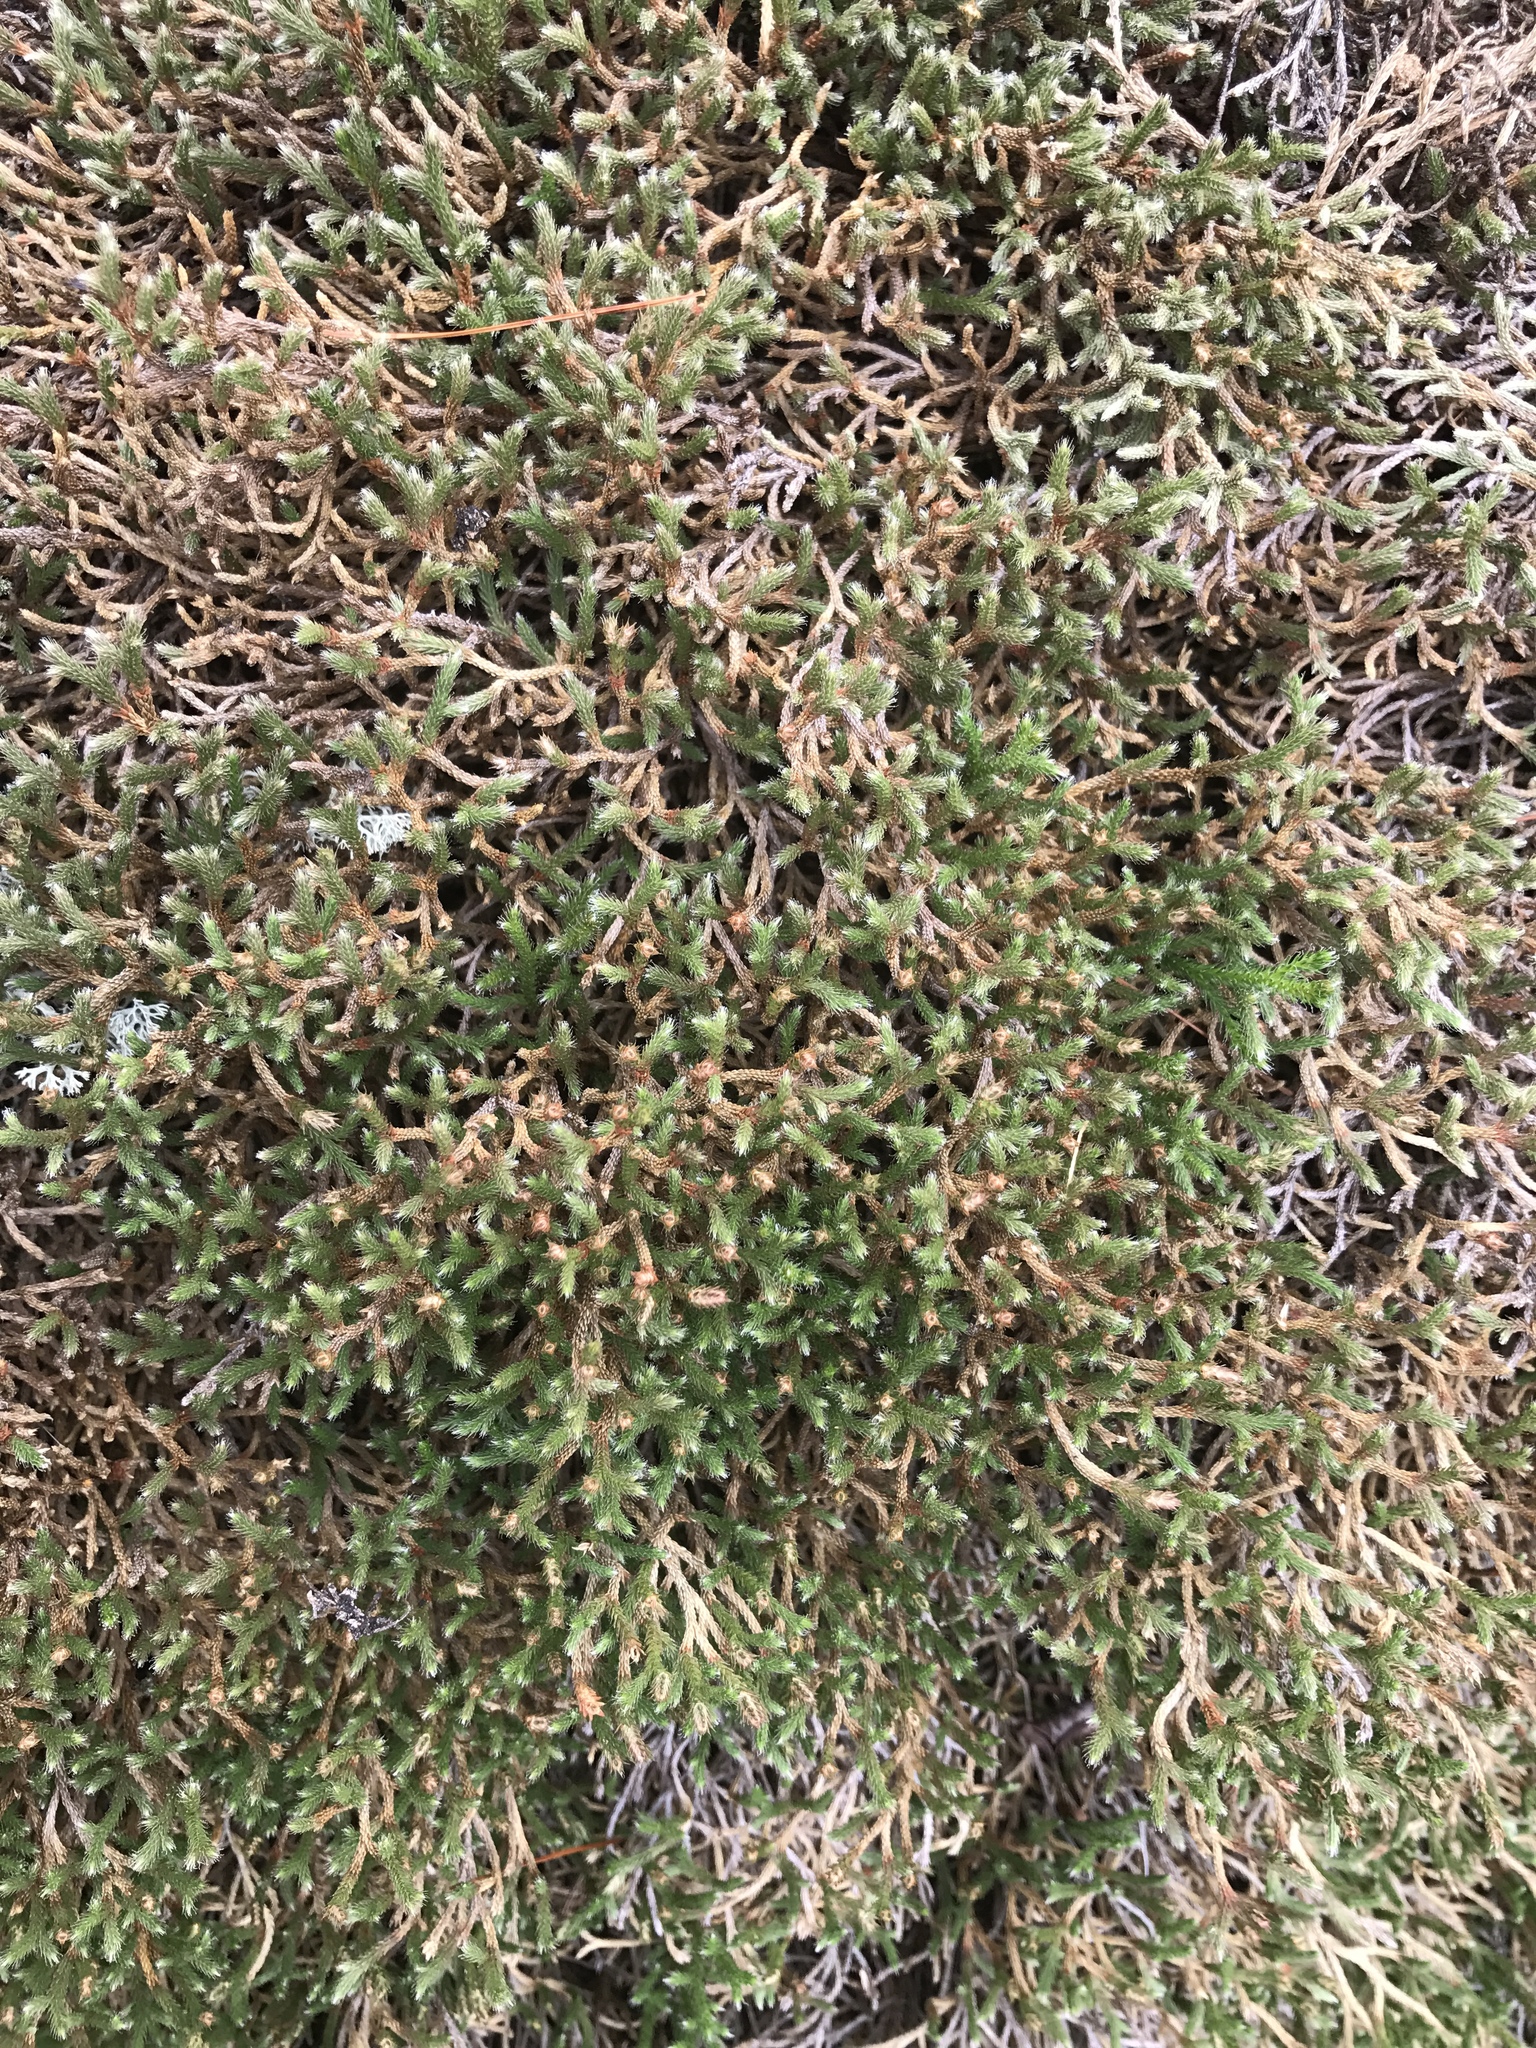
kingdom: Plantae
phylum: Tracheophyta
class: Lycopodiopsida
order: Selaginellales
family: Selaginellaceae
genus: Selaginella
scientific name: Selaginella tortipila
